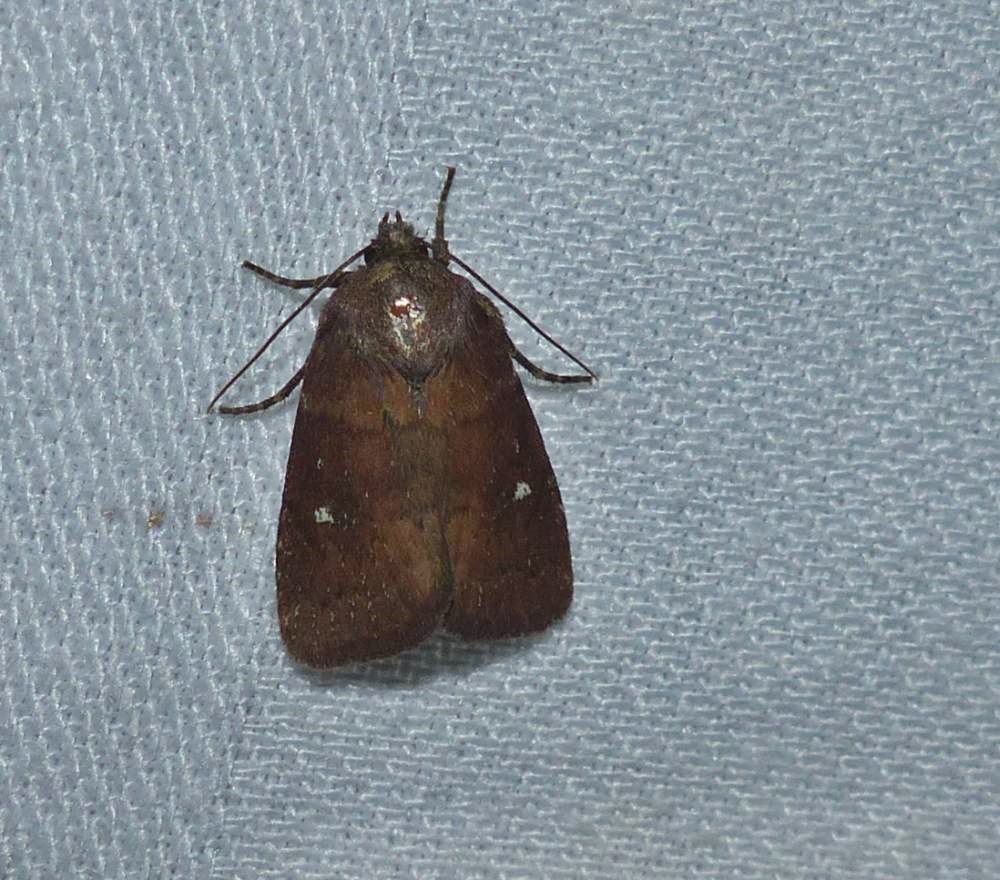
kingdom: Animalia
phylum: Arthropoda
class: Insecta
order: Lepidoptera
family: Noctuidae
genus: Pseudorthodes
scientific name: Pseudorthodes vecors
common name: Small brown quaker
